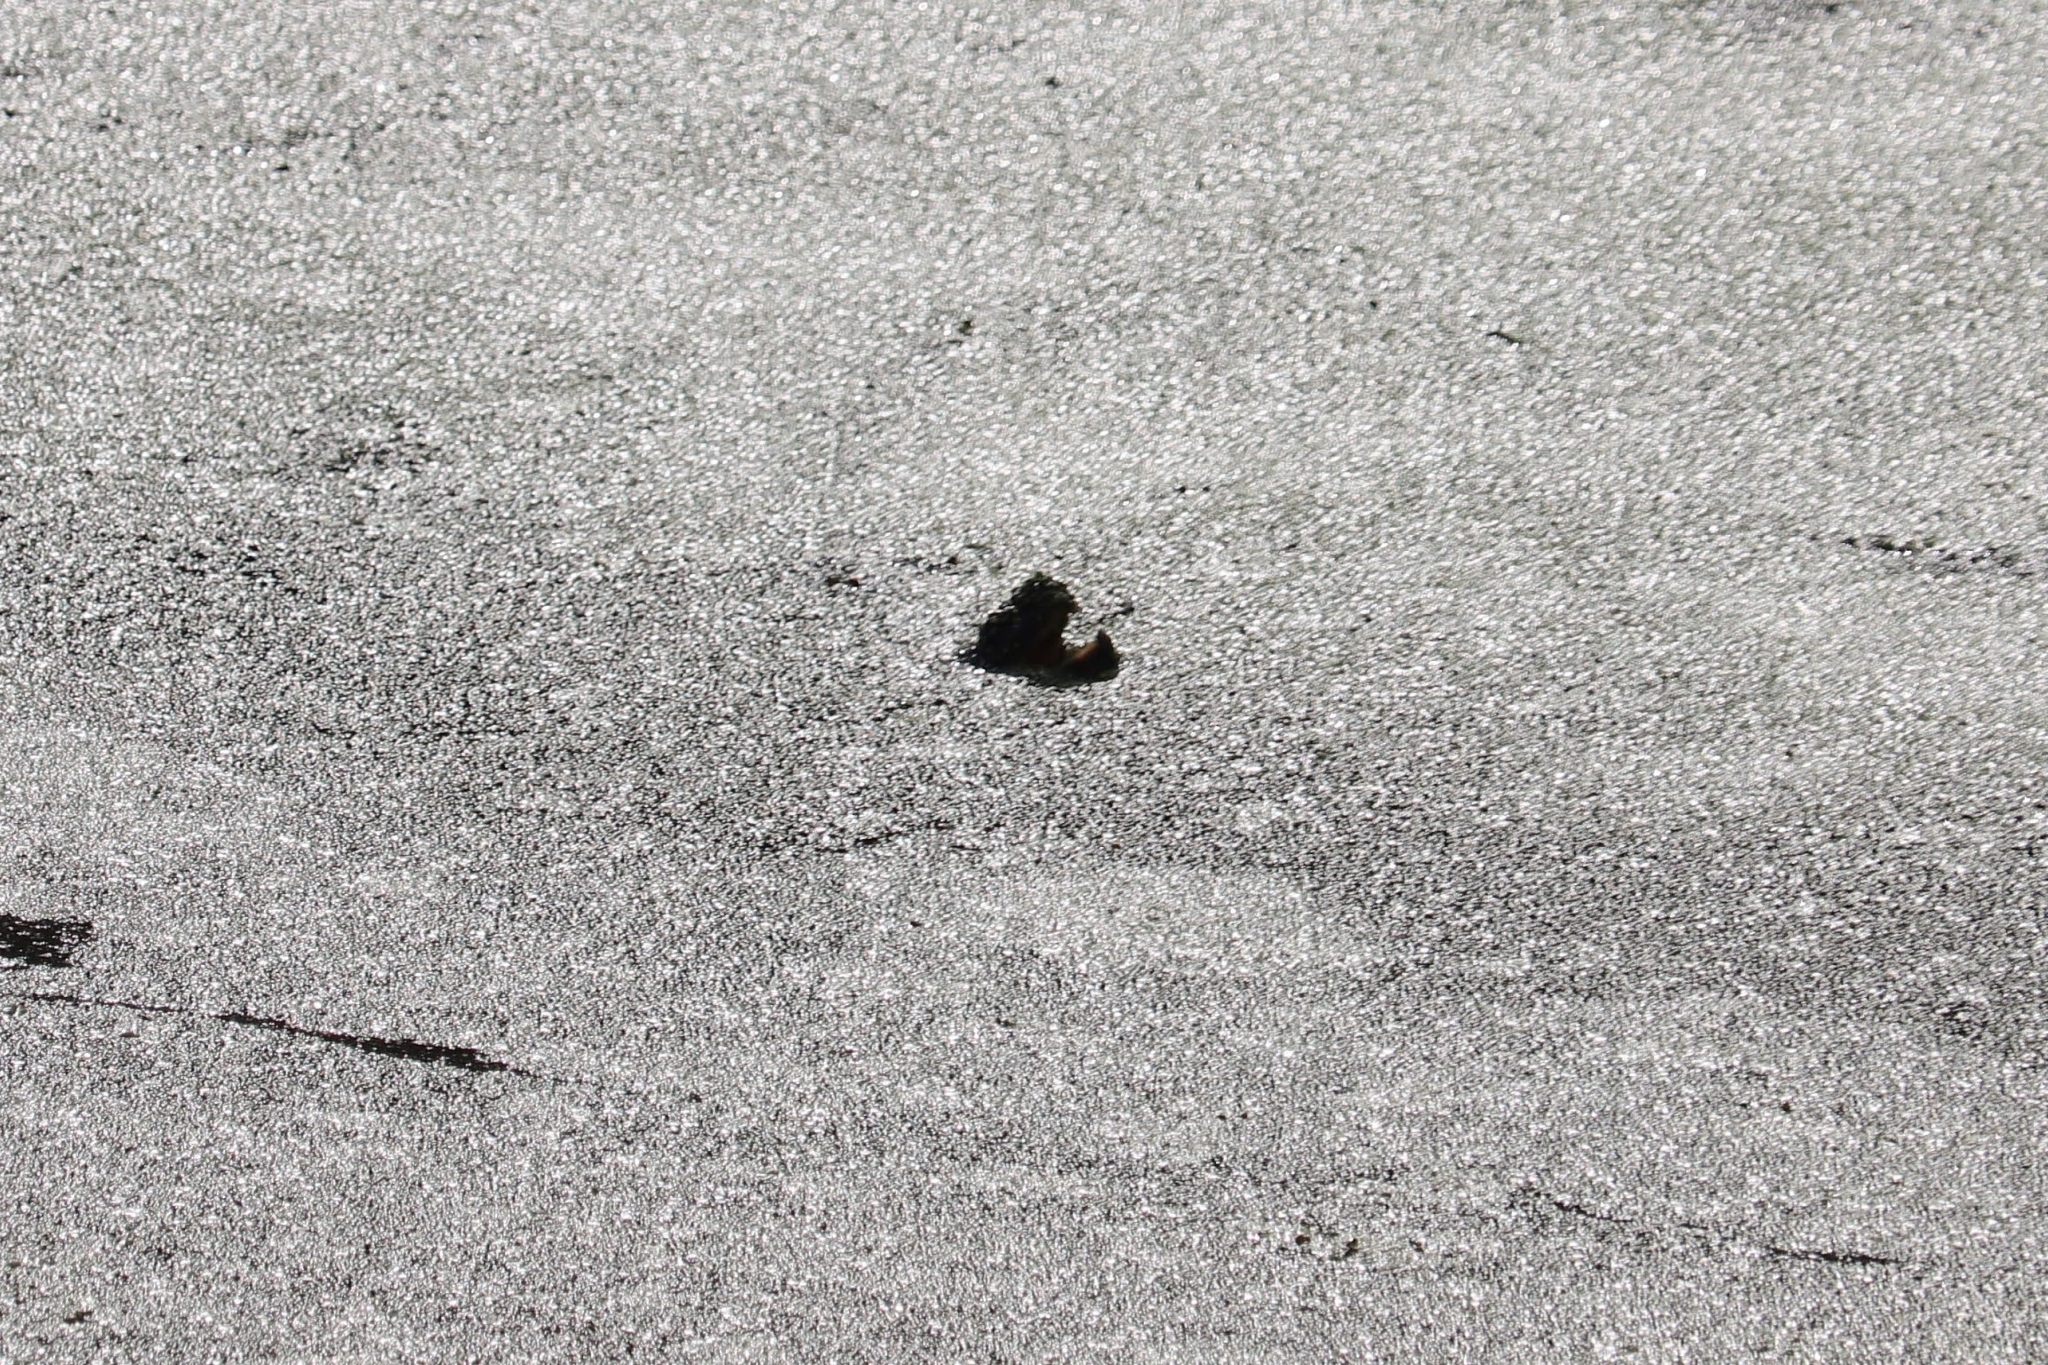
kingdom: Animalia
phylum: Chordata
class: Testudines
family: Chelydridae
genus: Chelydra
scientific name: Chelydra serpentina
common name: Common snapping turtle
